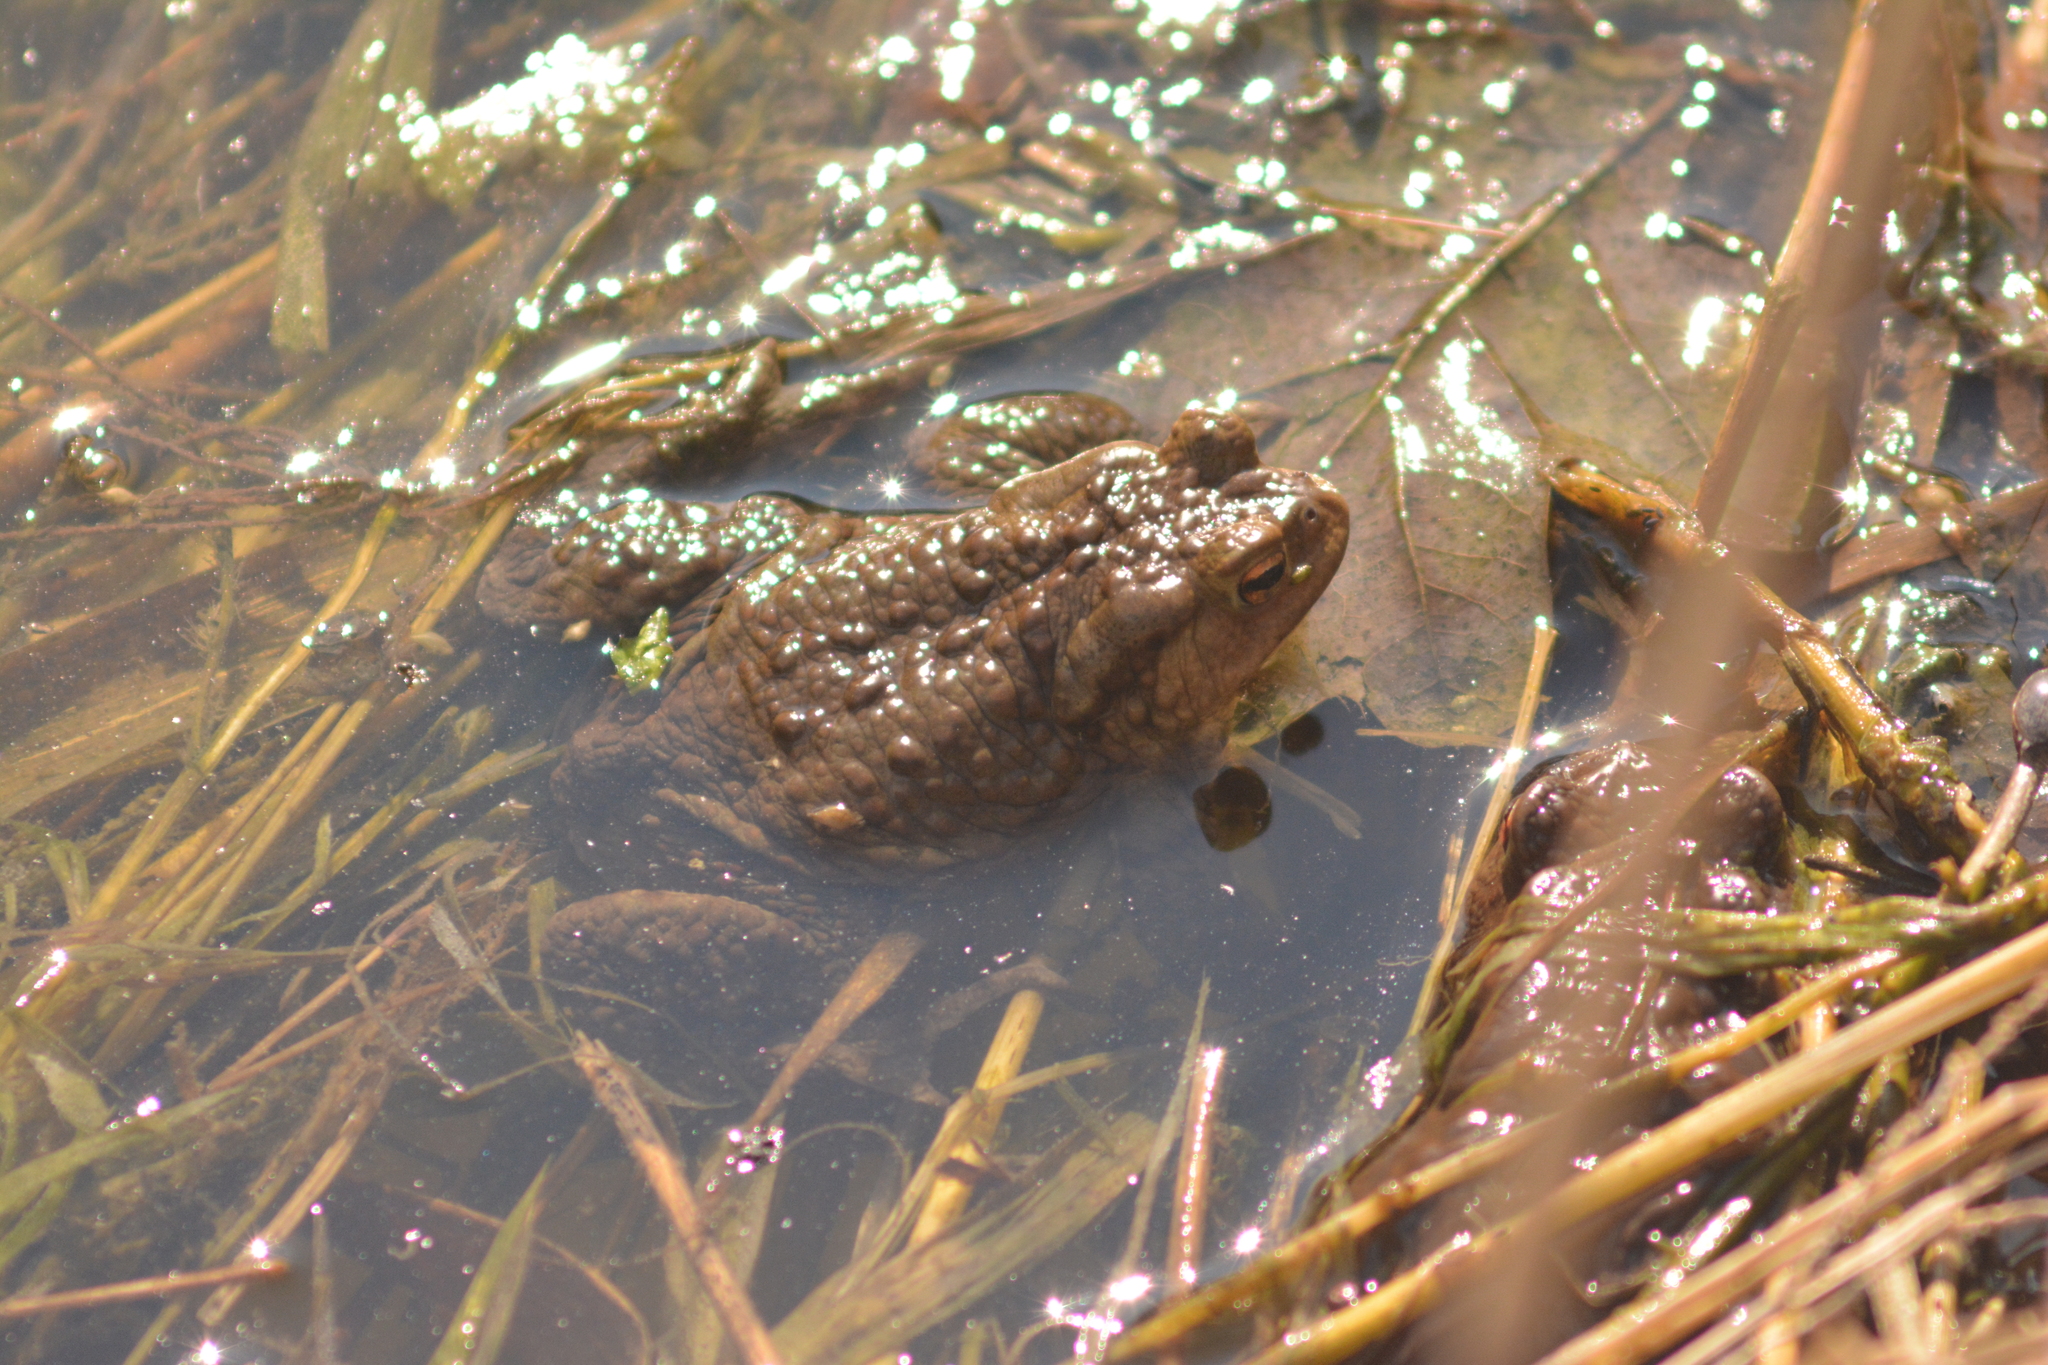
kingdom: Animalia
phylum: Chordata
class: Amphibia
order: Anura
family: Bufonidae
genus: Bufo
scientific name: Bufo bufo
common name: Common toad
